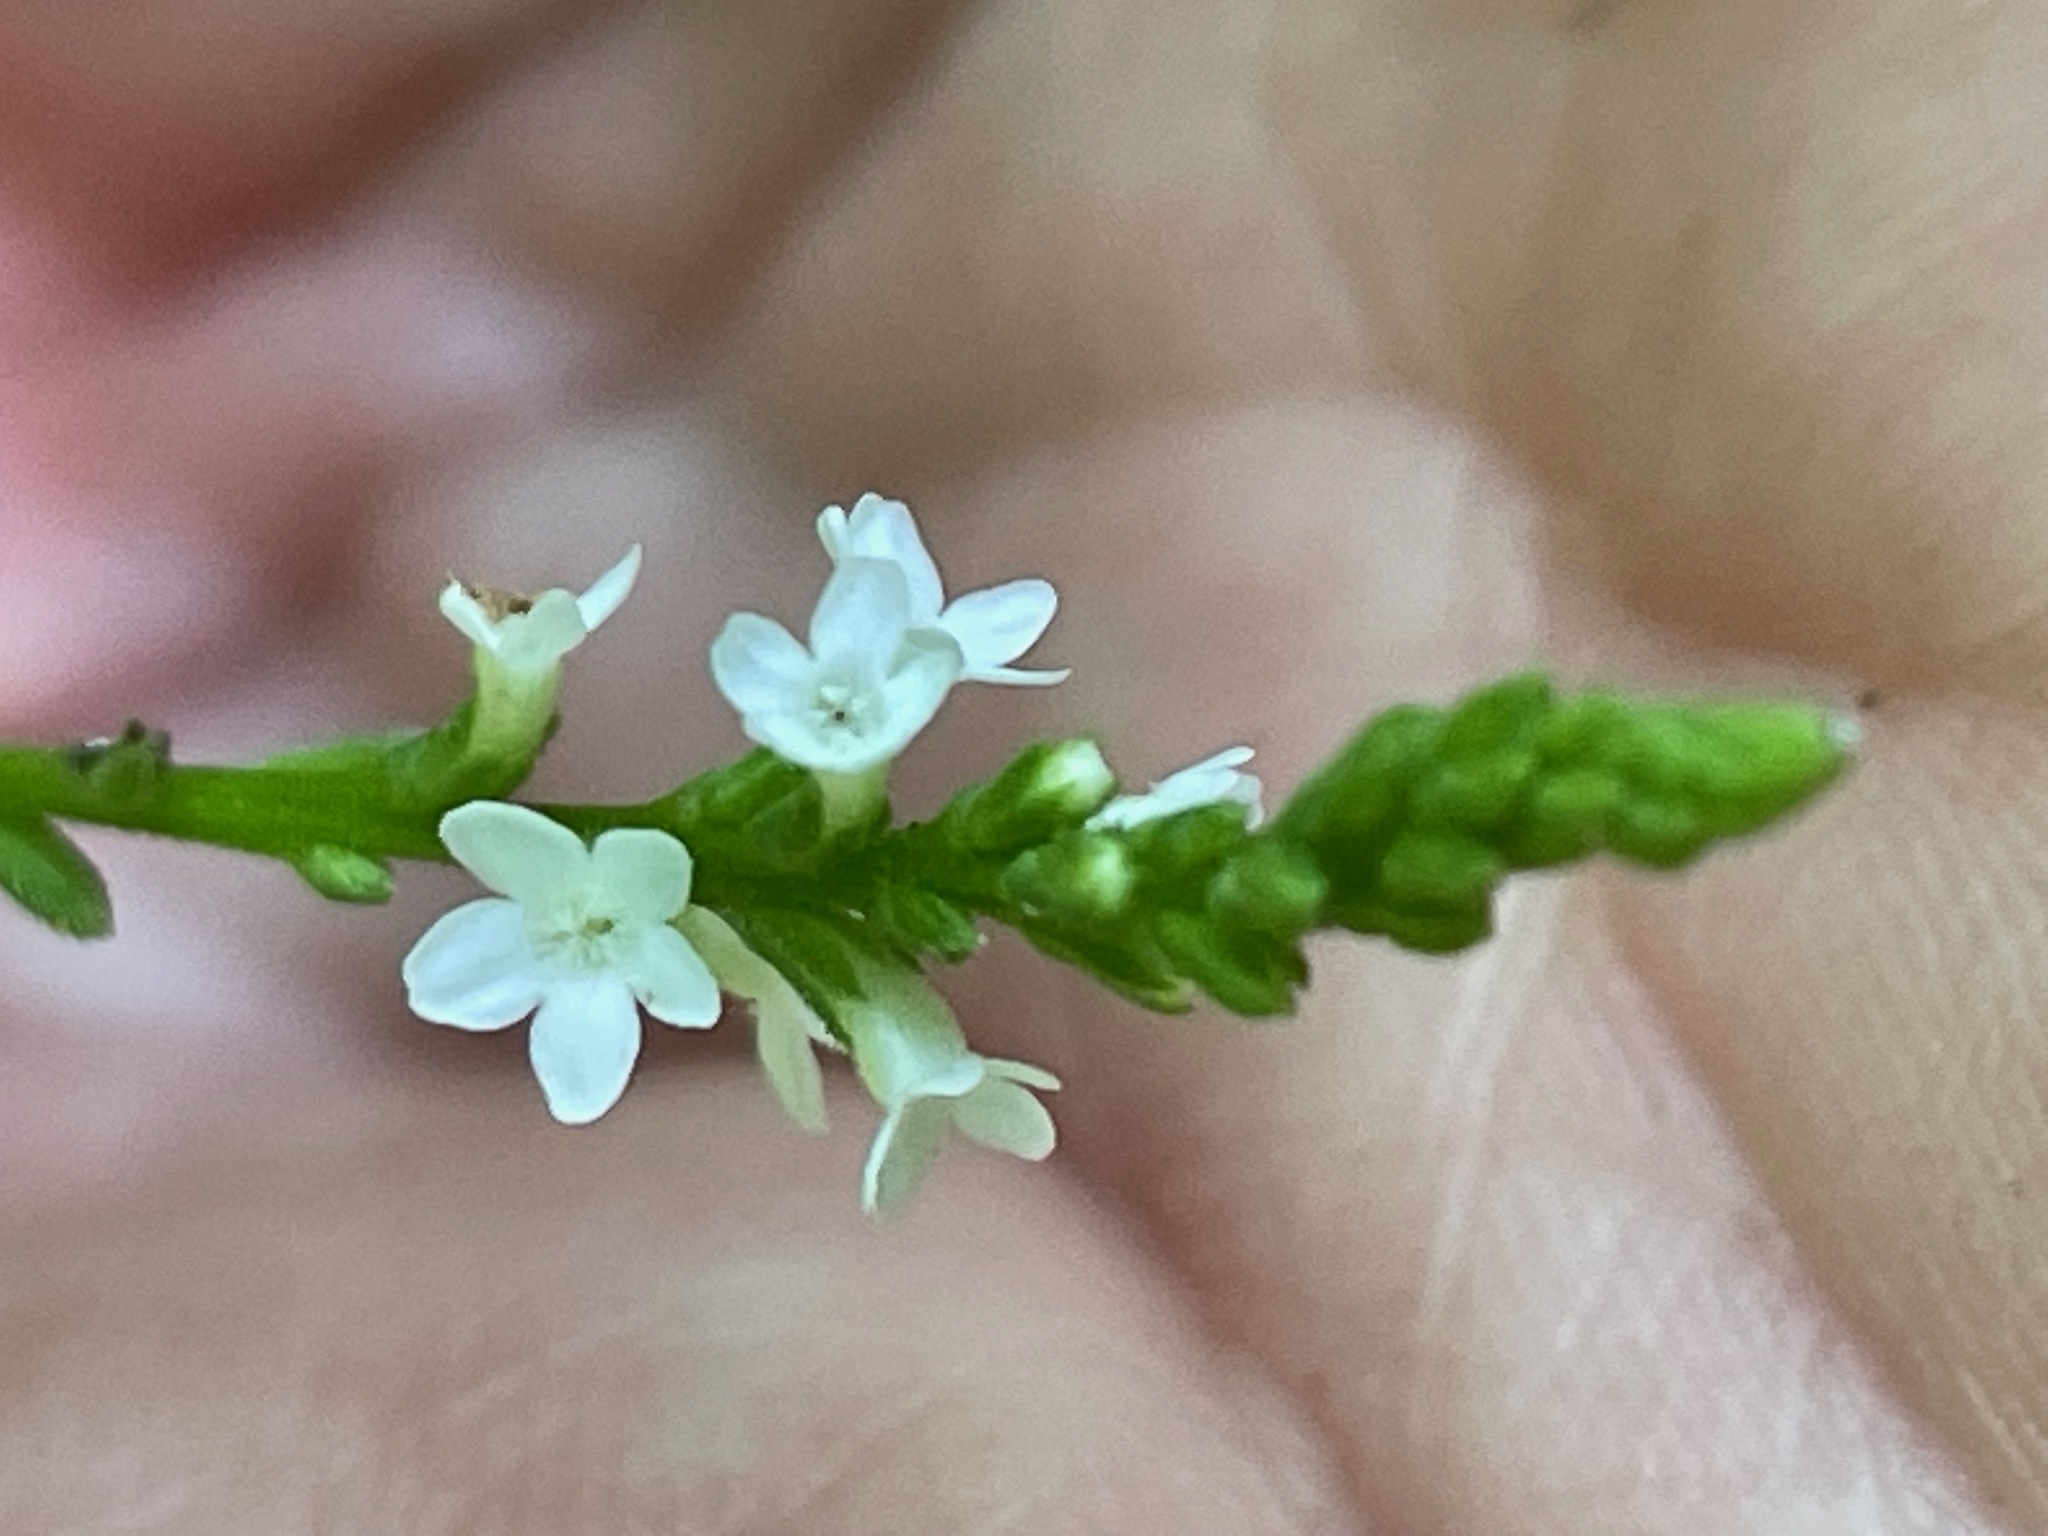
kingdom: Plantae
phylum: Tracheophyta
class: Magnoliopsida
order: Lamiales
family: Verbenaceae
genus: Verbena
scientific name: Verbena urticifolia
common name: Nettle-leaved vervain
